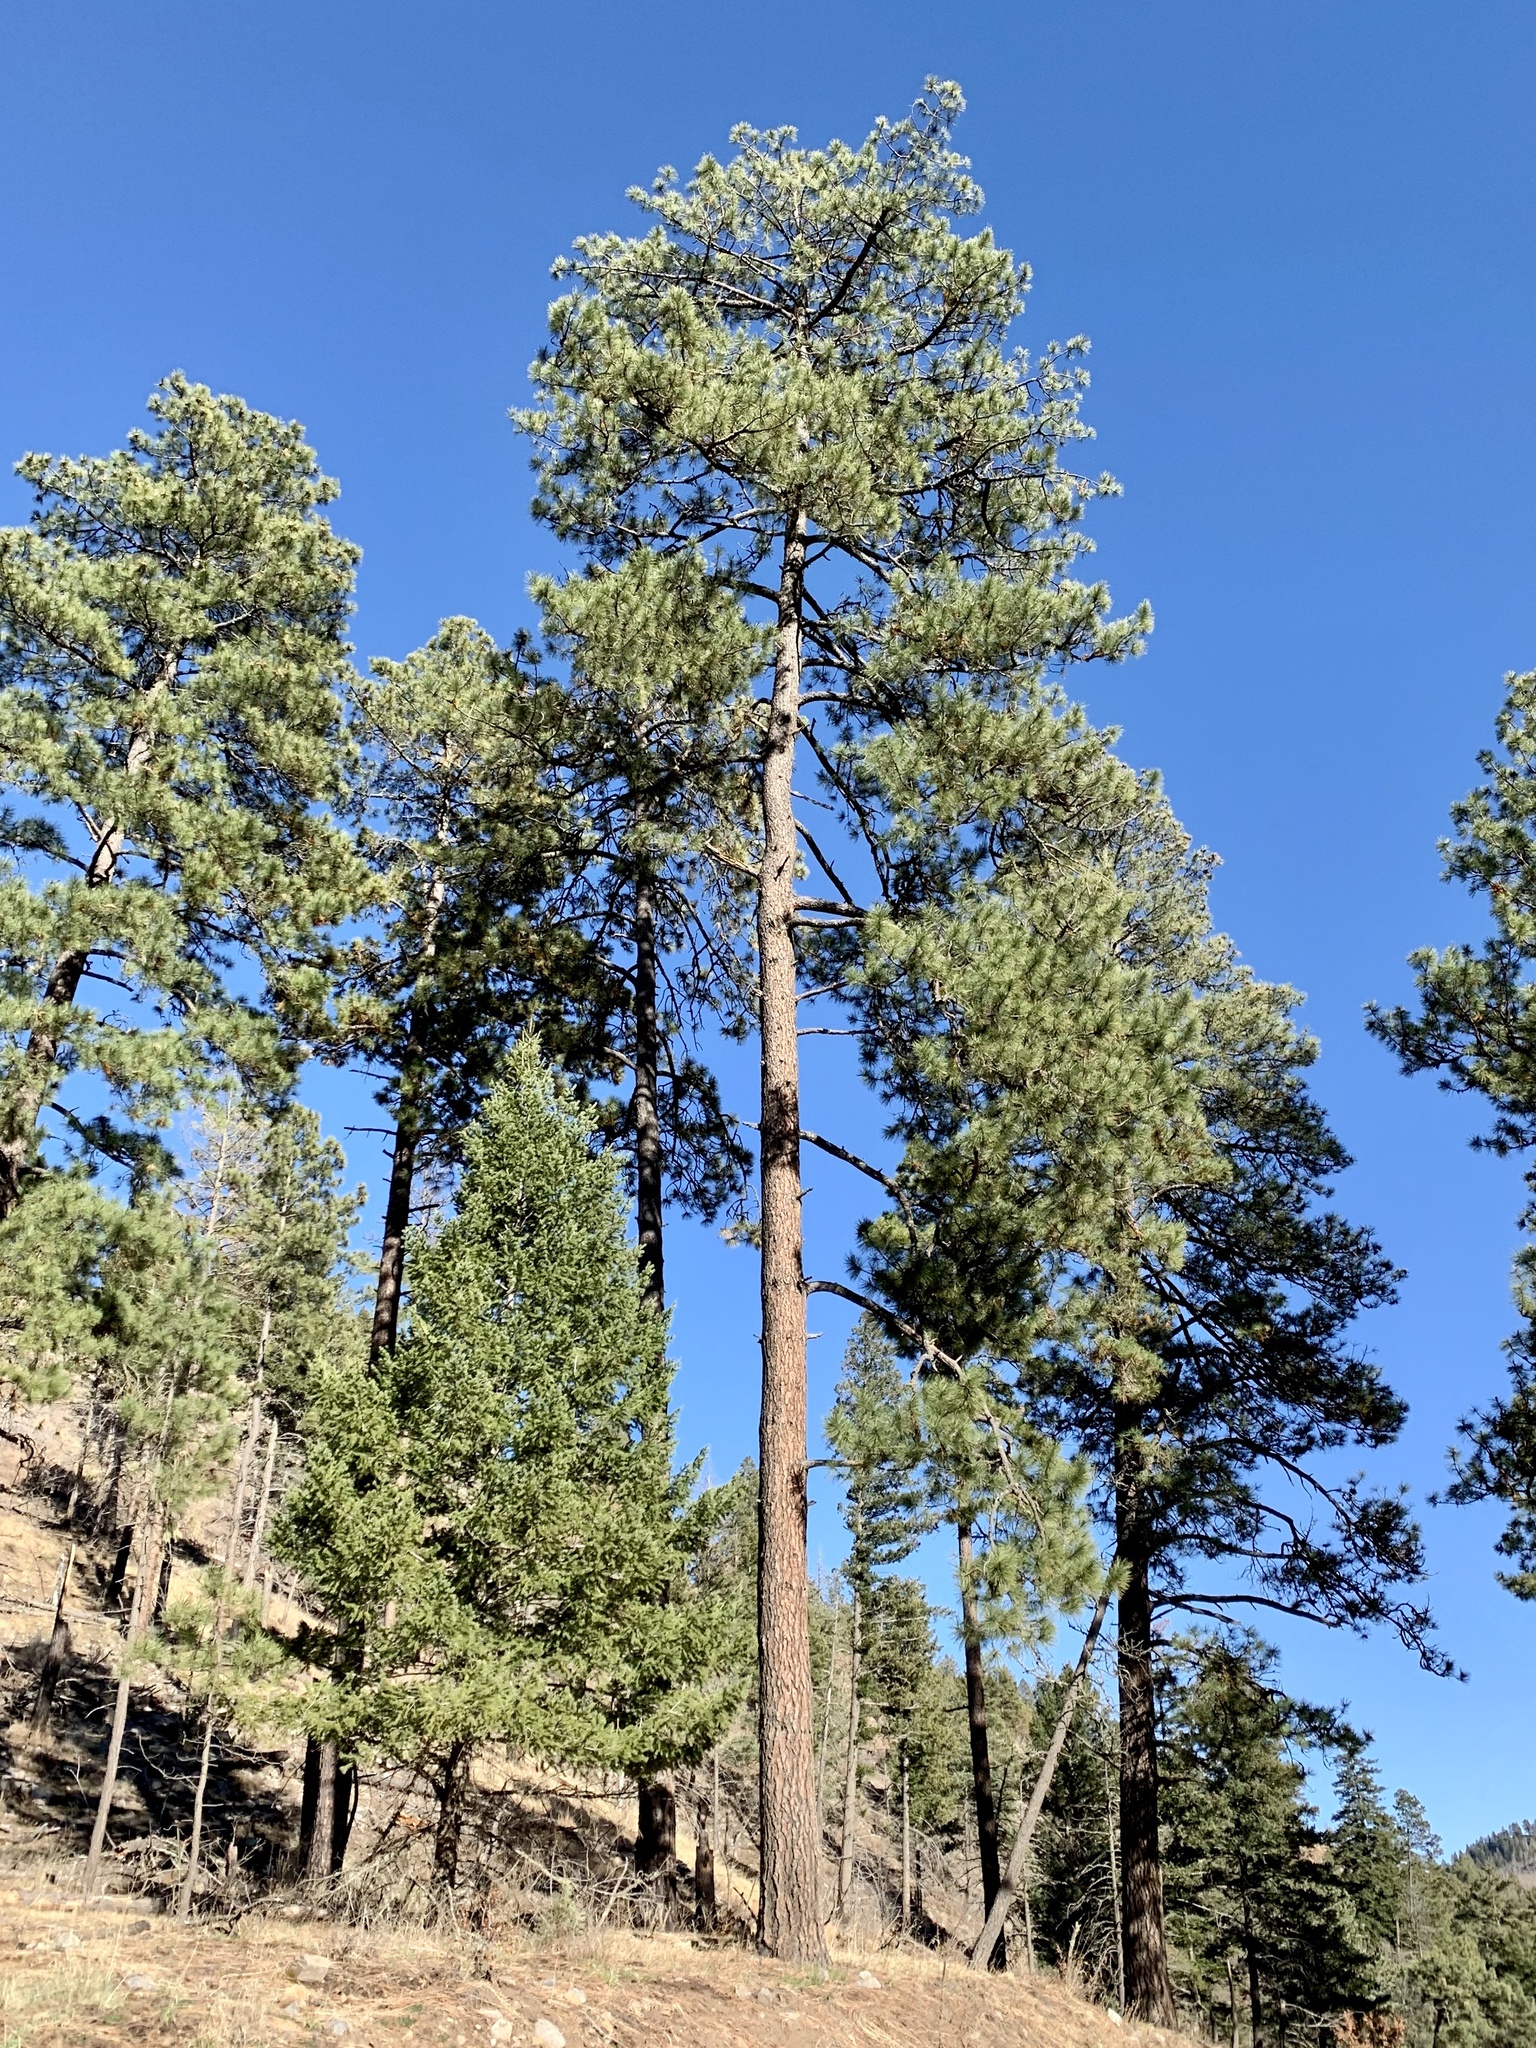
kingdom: Plantae
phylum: Tracheophyta
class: Pinopsida
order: Pinales
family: Pinaceae
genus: Pinus
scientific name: Pinus ponderosa
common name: Western yellow-pine
